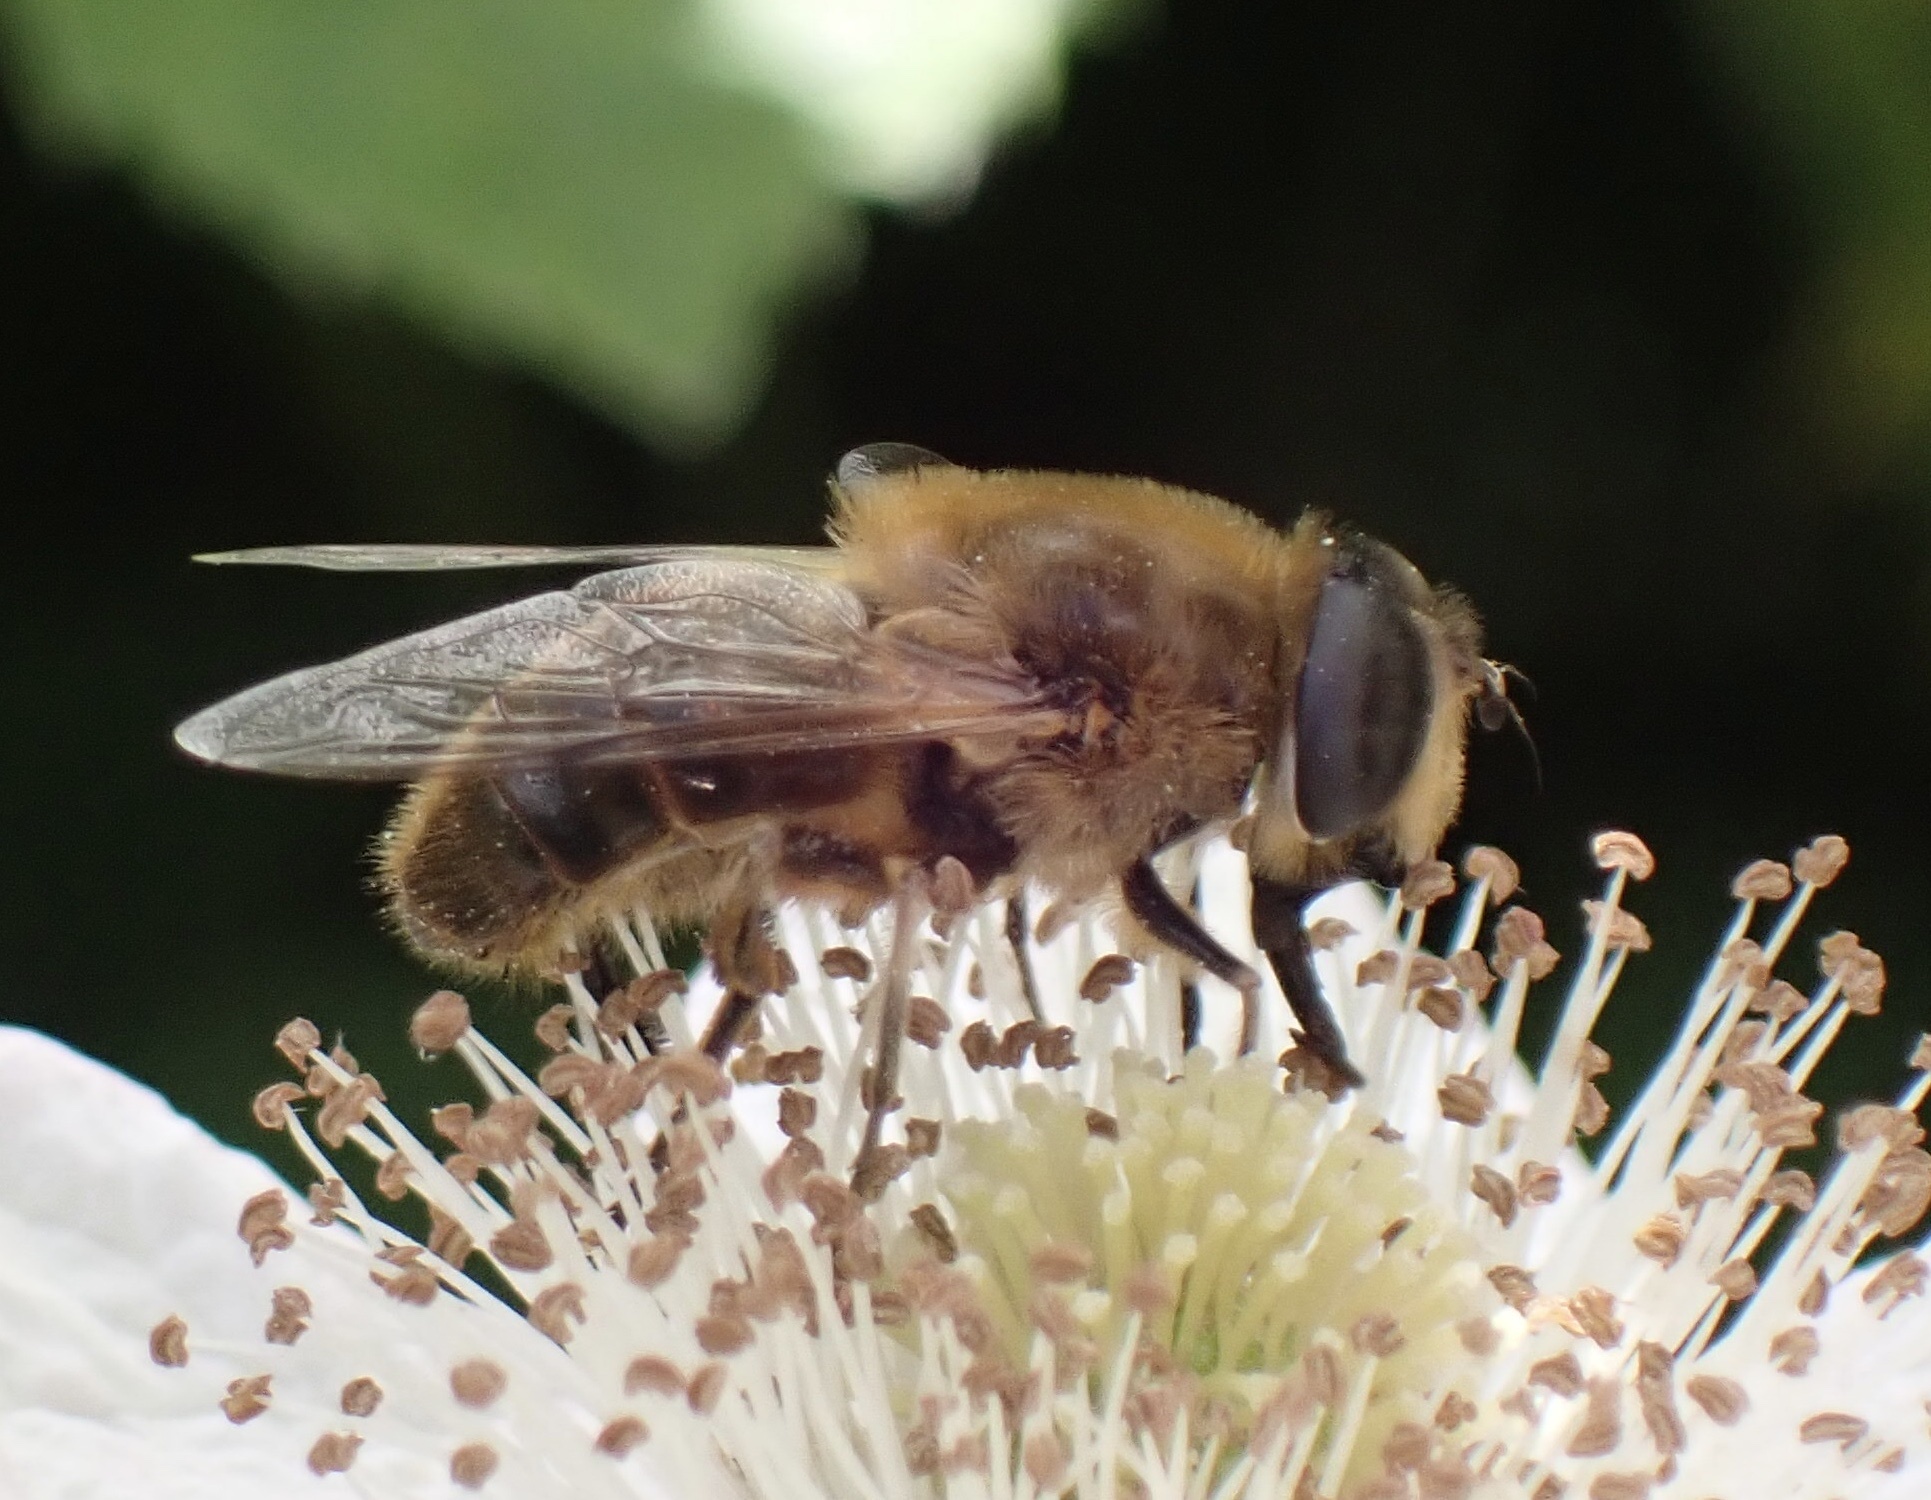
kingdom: Animalia
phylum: Arthropoda
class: Insecta
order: Diptera
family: Syrphidae
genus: Eristalis
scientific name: Eristalis tenax
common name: Drone fly
